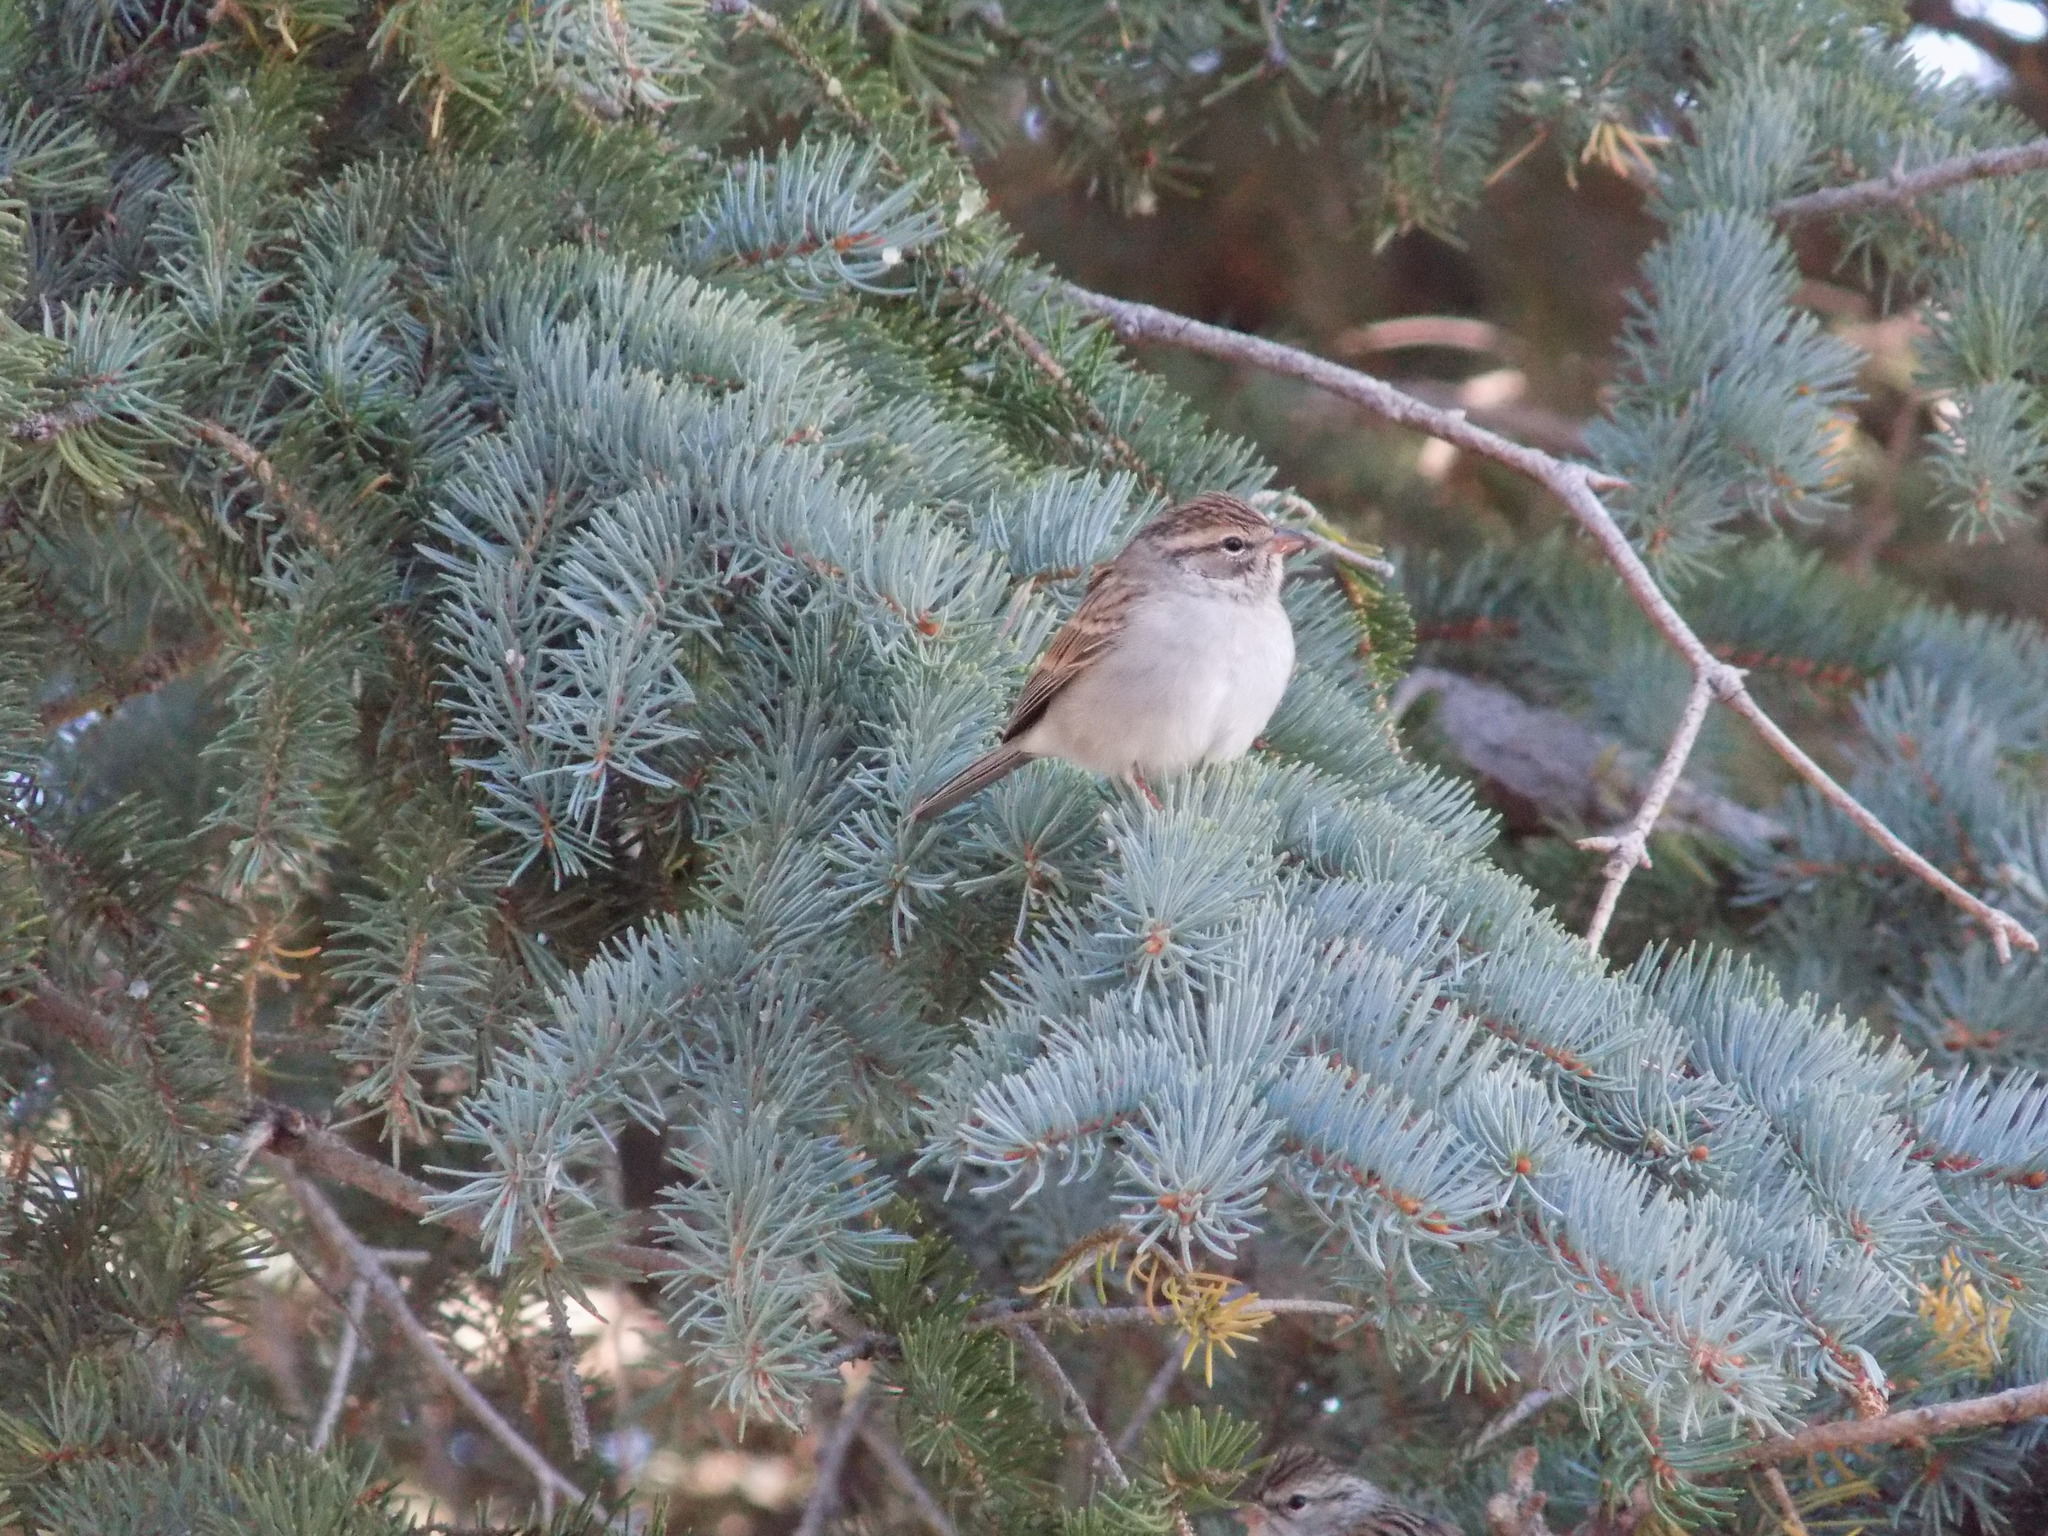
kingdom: Animalia
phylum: Chordata
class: Aves
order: Passeriformes
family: Passerellidae
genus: Spizella
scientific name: Spizella passerina
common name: Chipping sparrow
